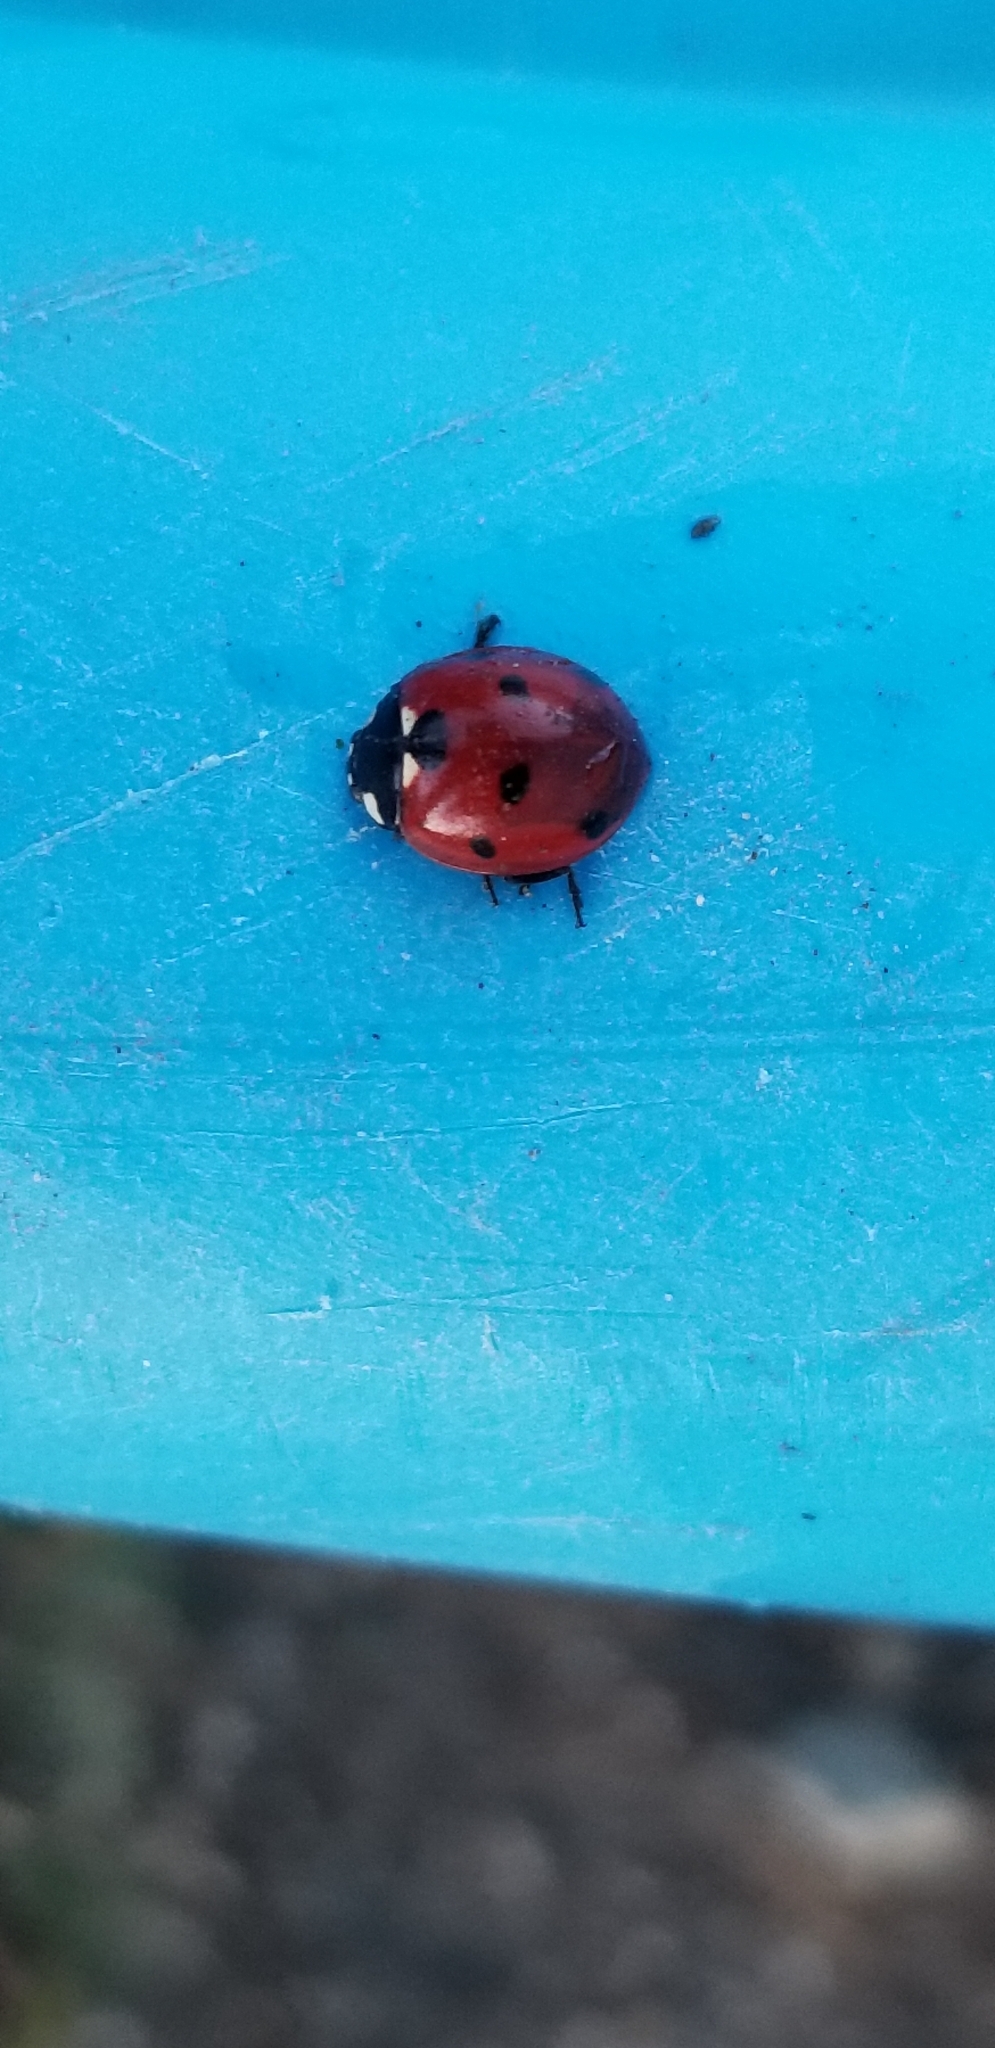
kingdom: Animalia
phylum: Arthropoda
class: Insecta
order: Coleoptera
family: Coccinellidae
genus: Coccinella
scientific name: Coccinella septempunctata
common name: Sevenspotted lady beetle
